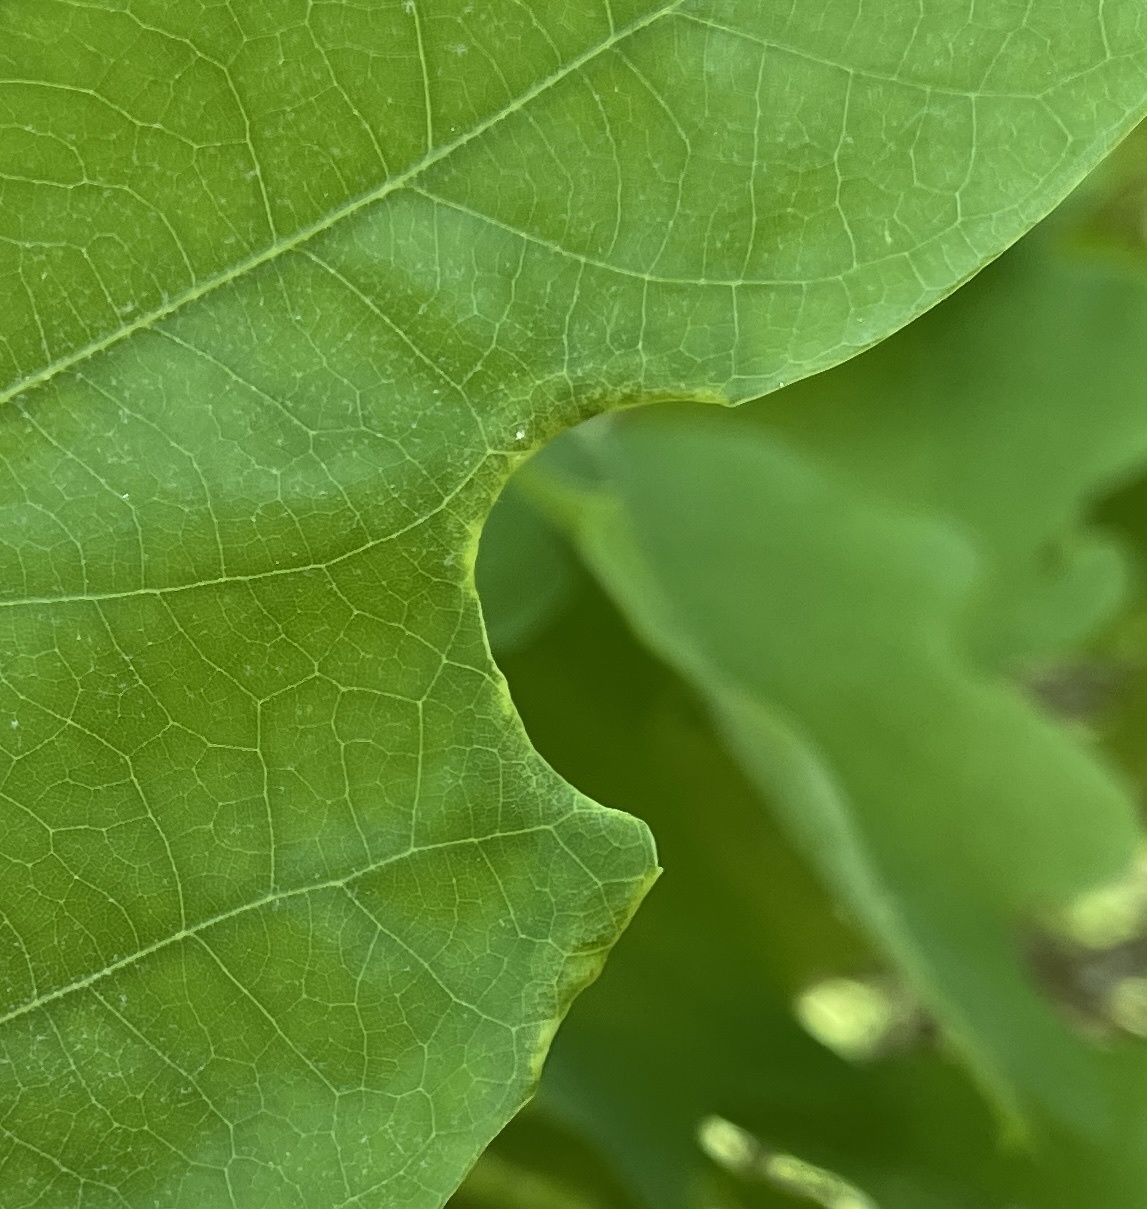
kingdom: Animalia
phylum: Arthropoda
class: Insecta
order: Diptera
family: Cecidomyiidae
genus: Macrodiplosis
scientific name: Macrodiplosis erubescens
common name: Marginal leaf fold gall midge
